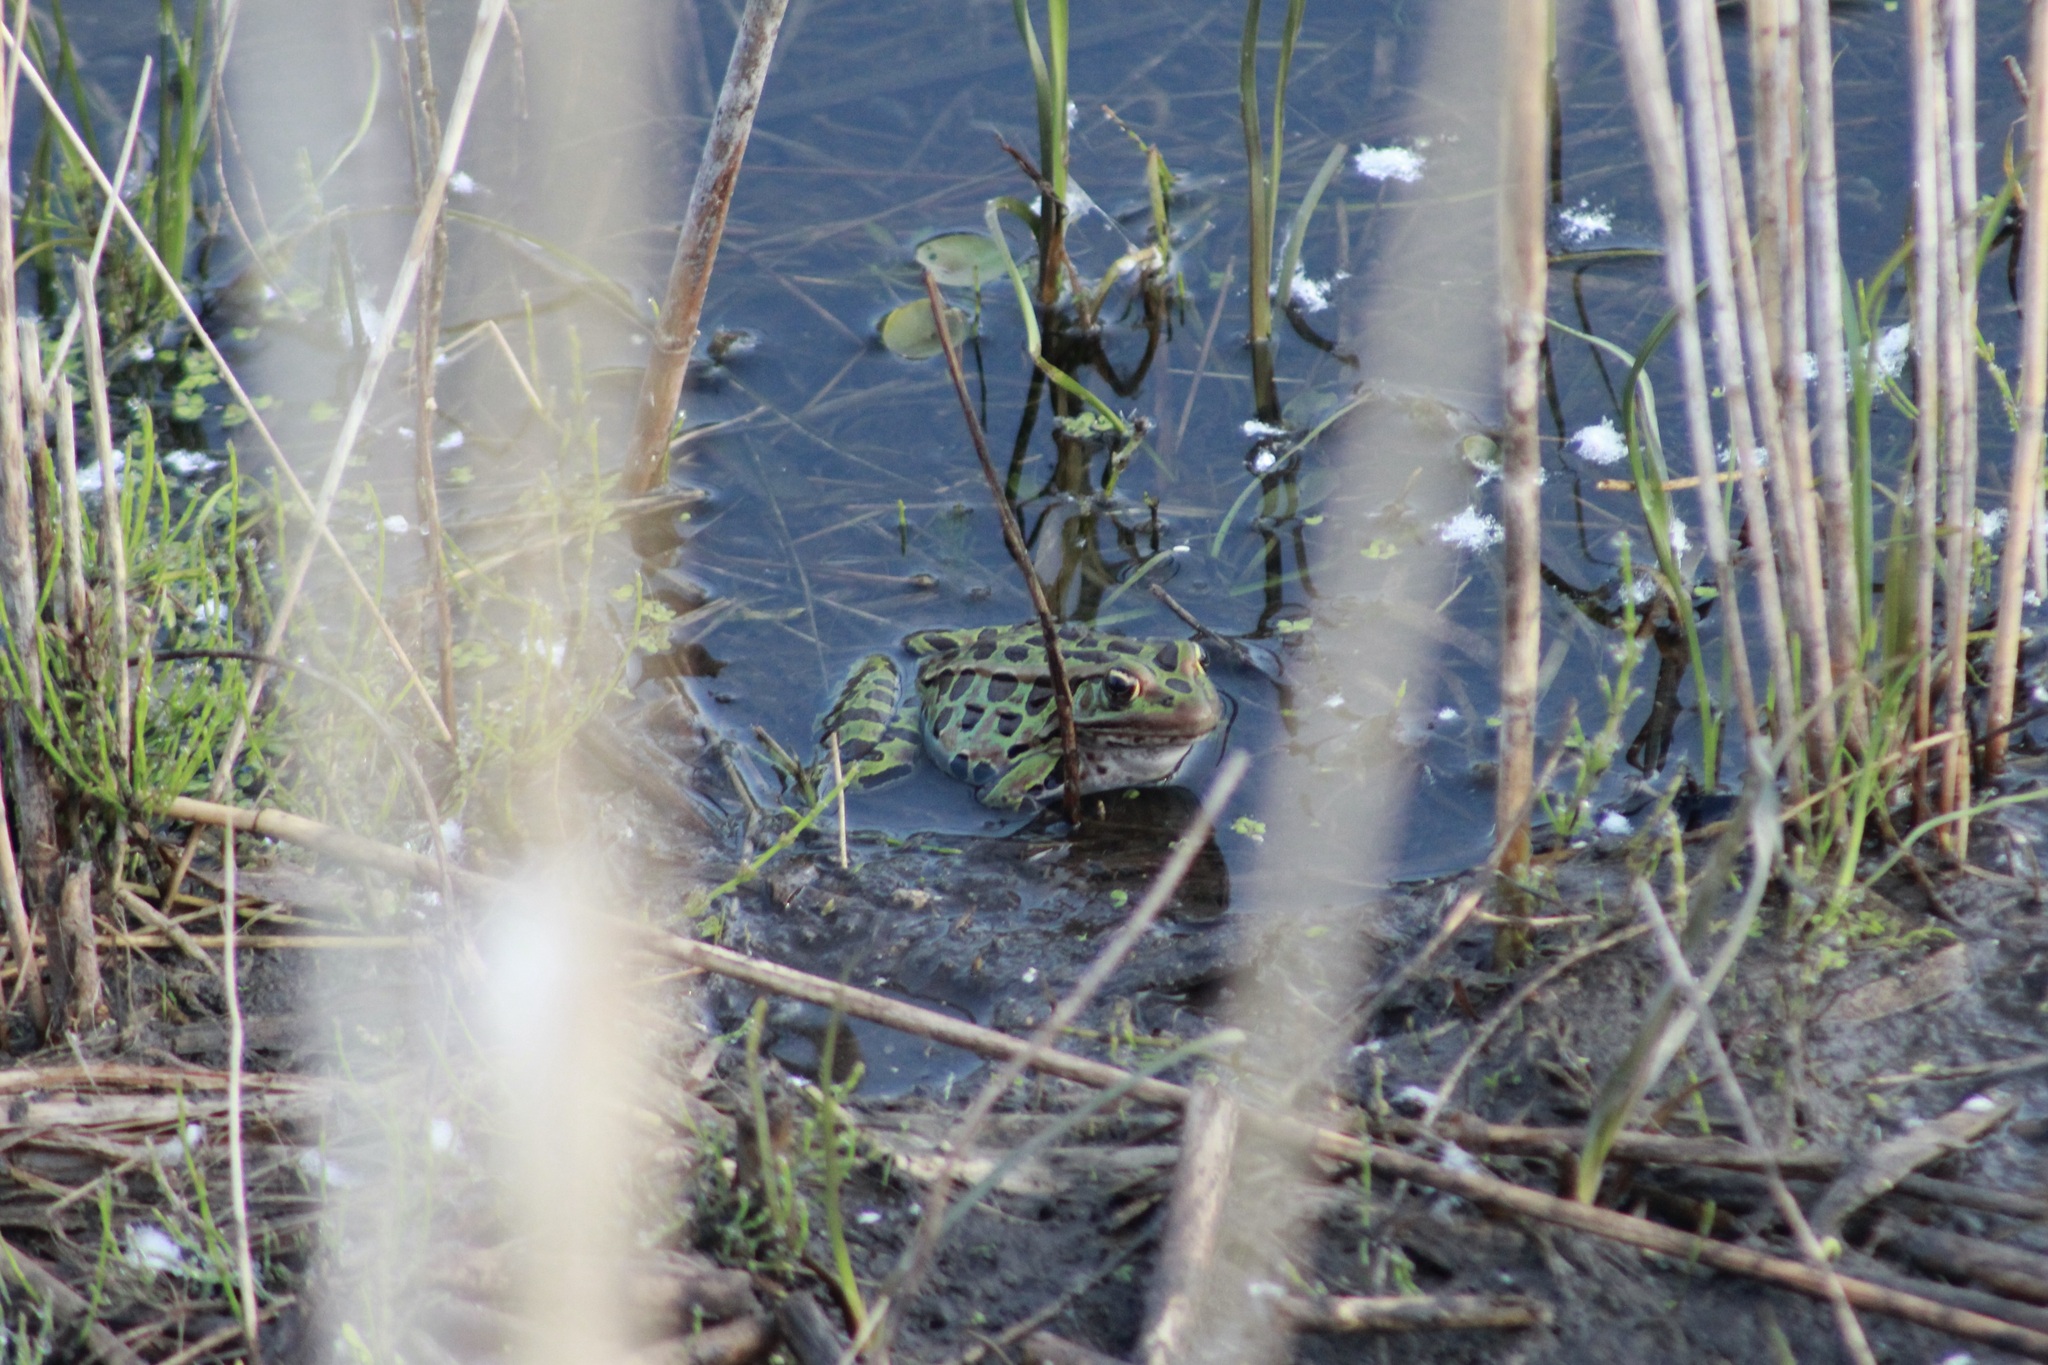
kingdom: Animalia
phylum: Chordata
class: Amphibia
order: Anura
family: Ranidae
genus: Lithobates
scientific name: Lithobates pipiens
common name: Northern leopard frog
